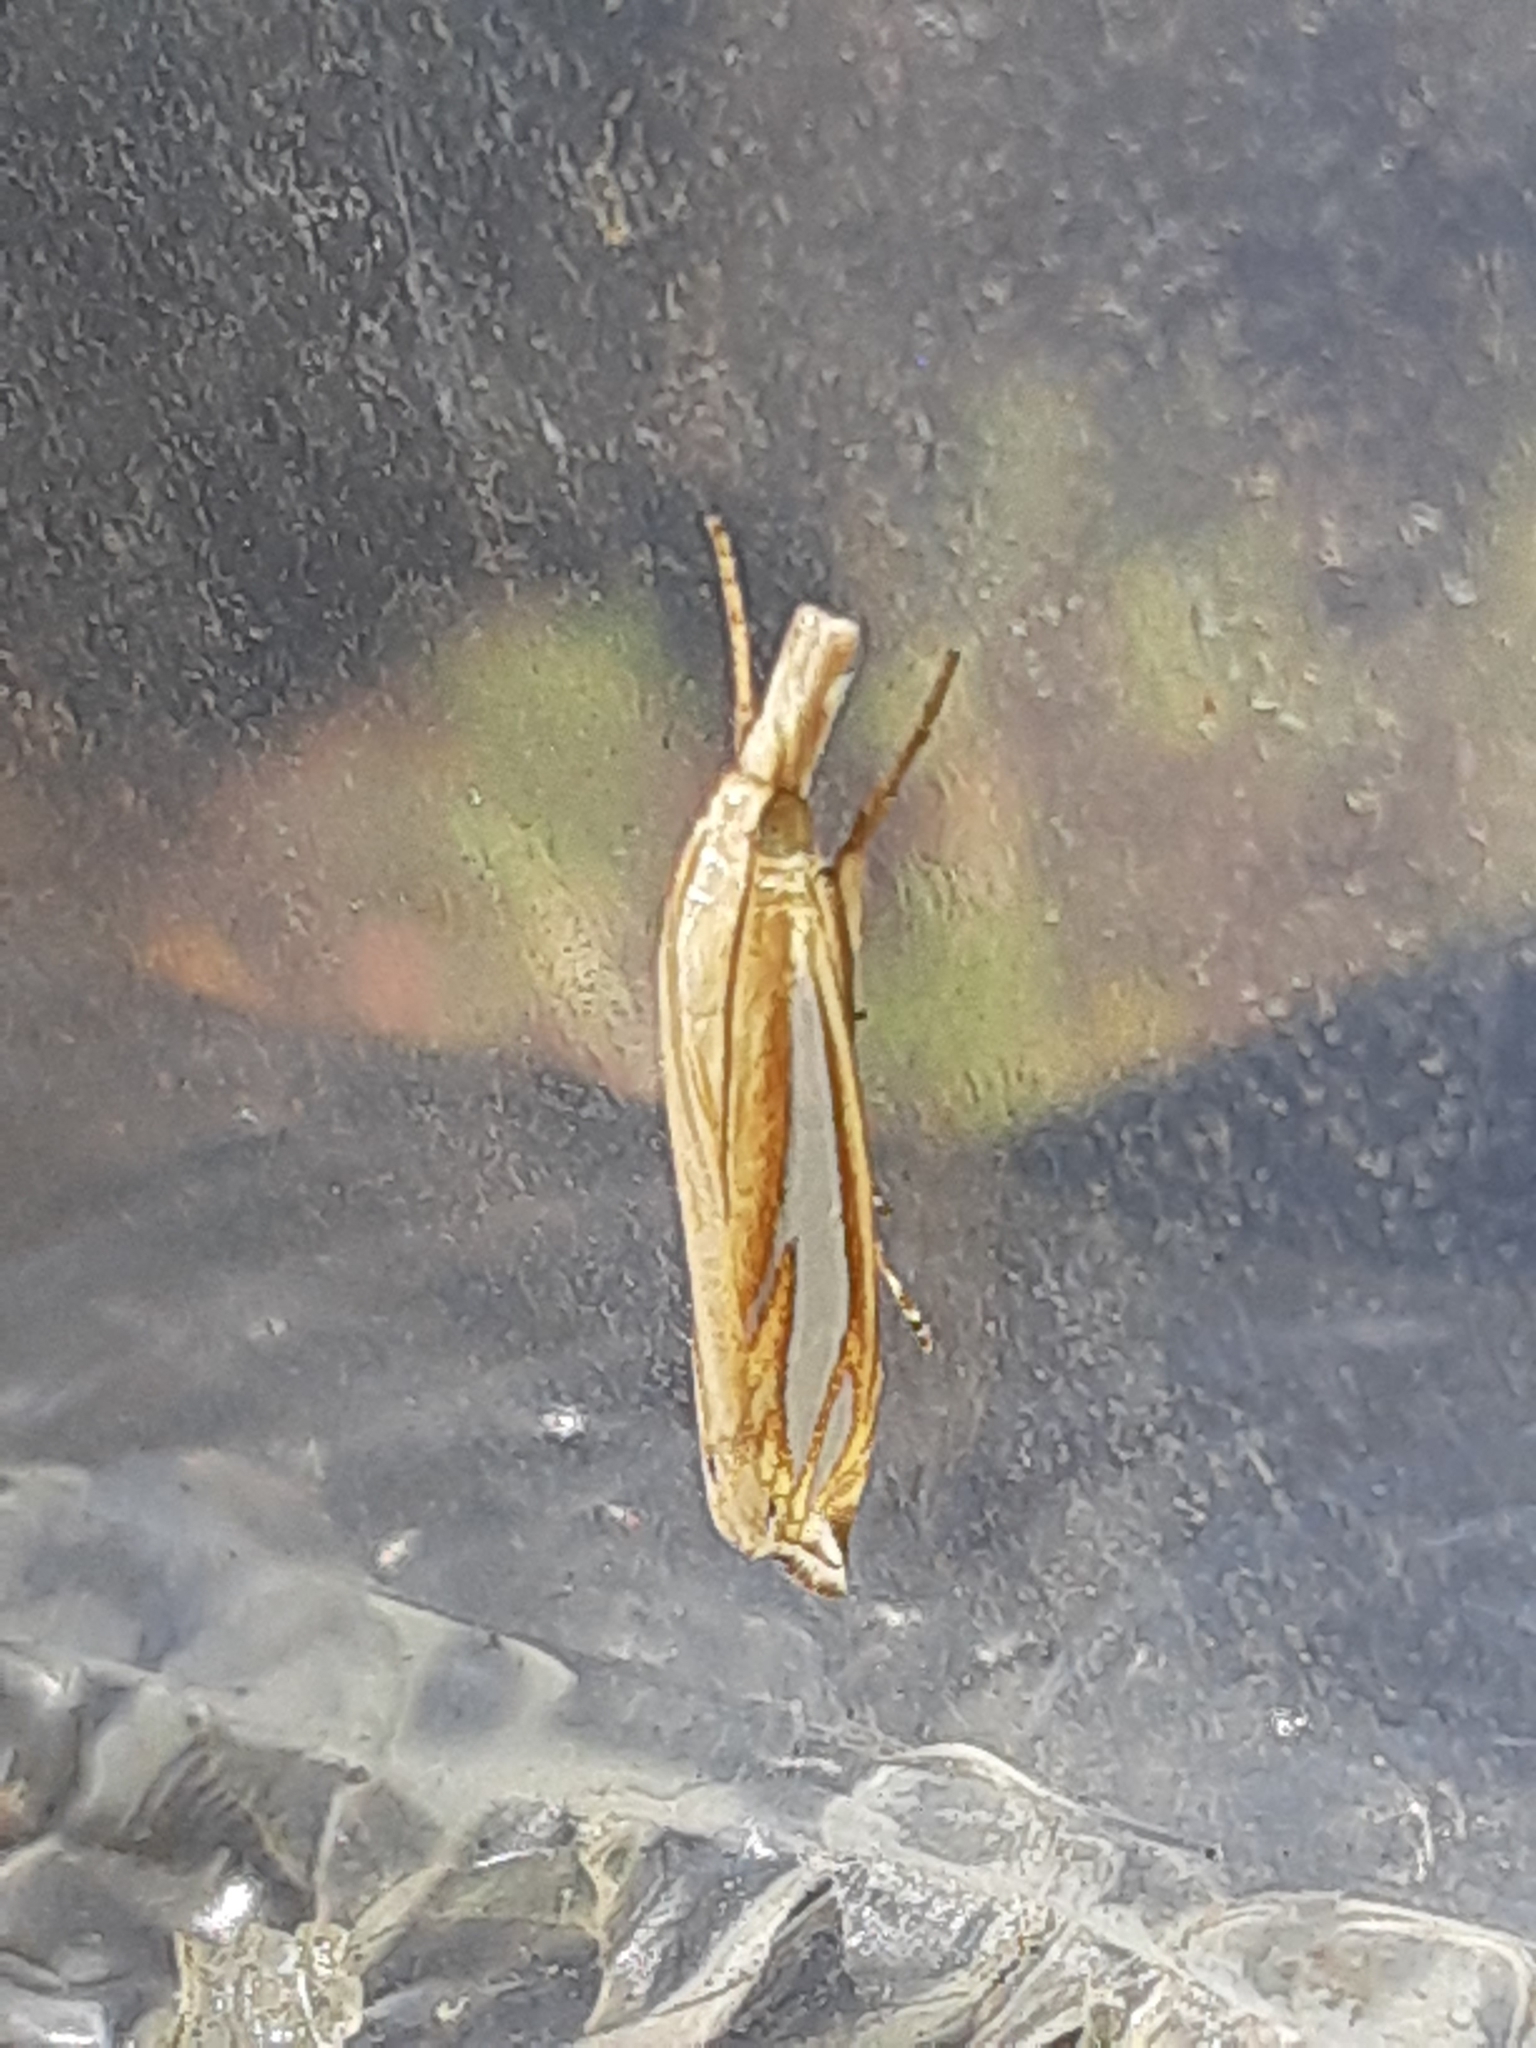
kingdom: Animalia
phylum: Arthropoda
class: Insecta
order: Lepidoptera
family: Crambidae
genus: Crambus
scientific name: Crambus satrapellus
